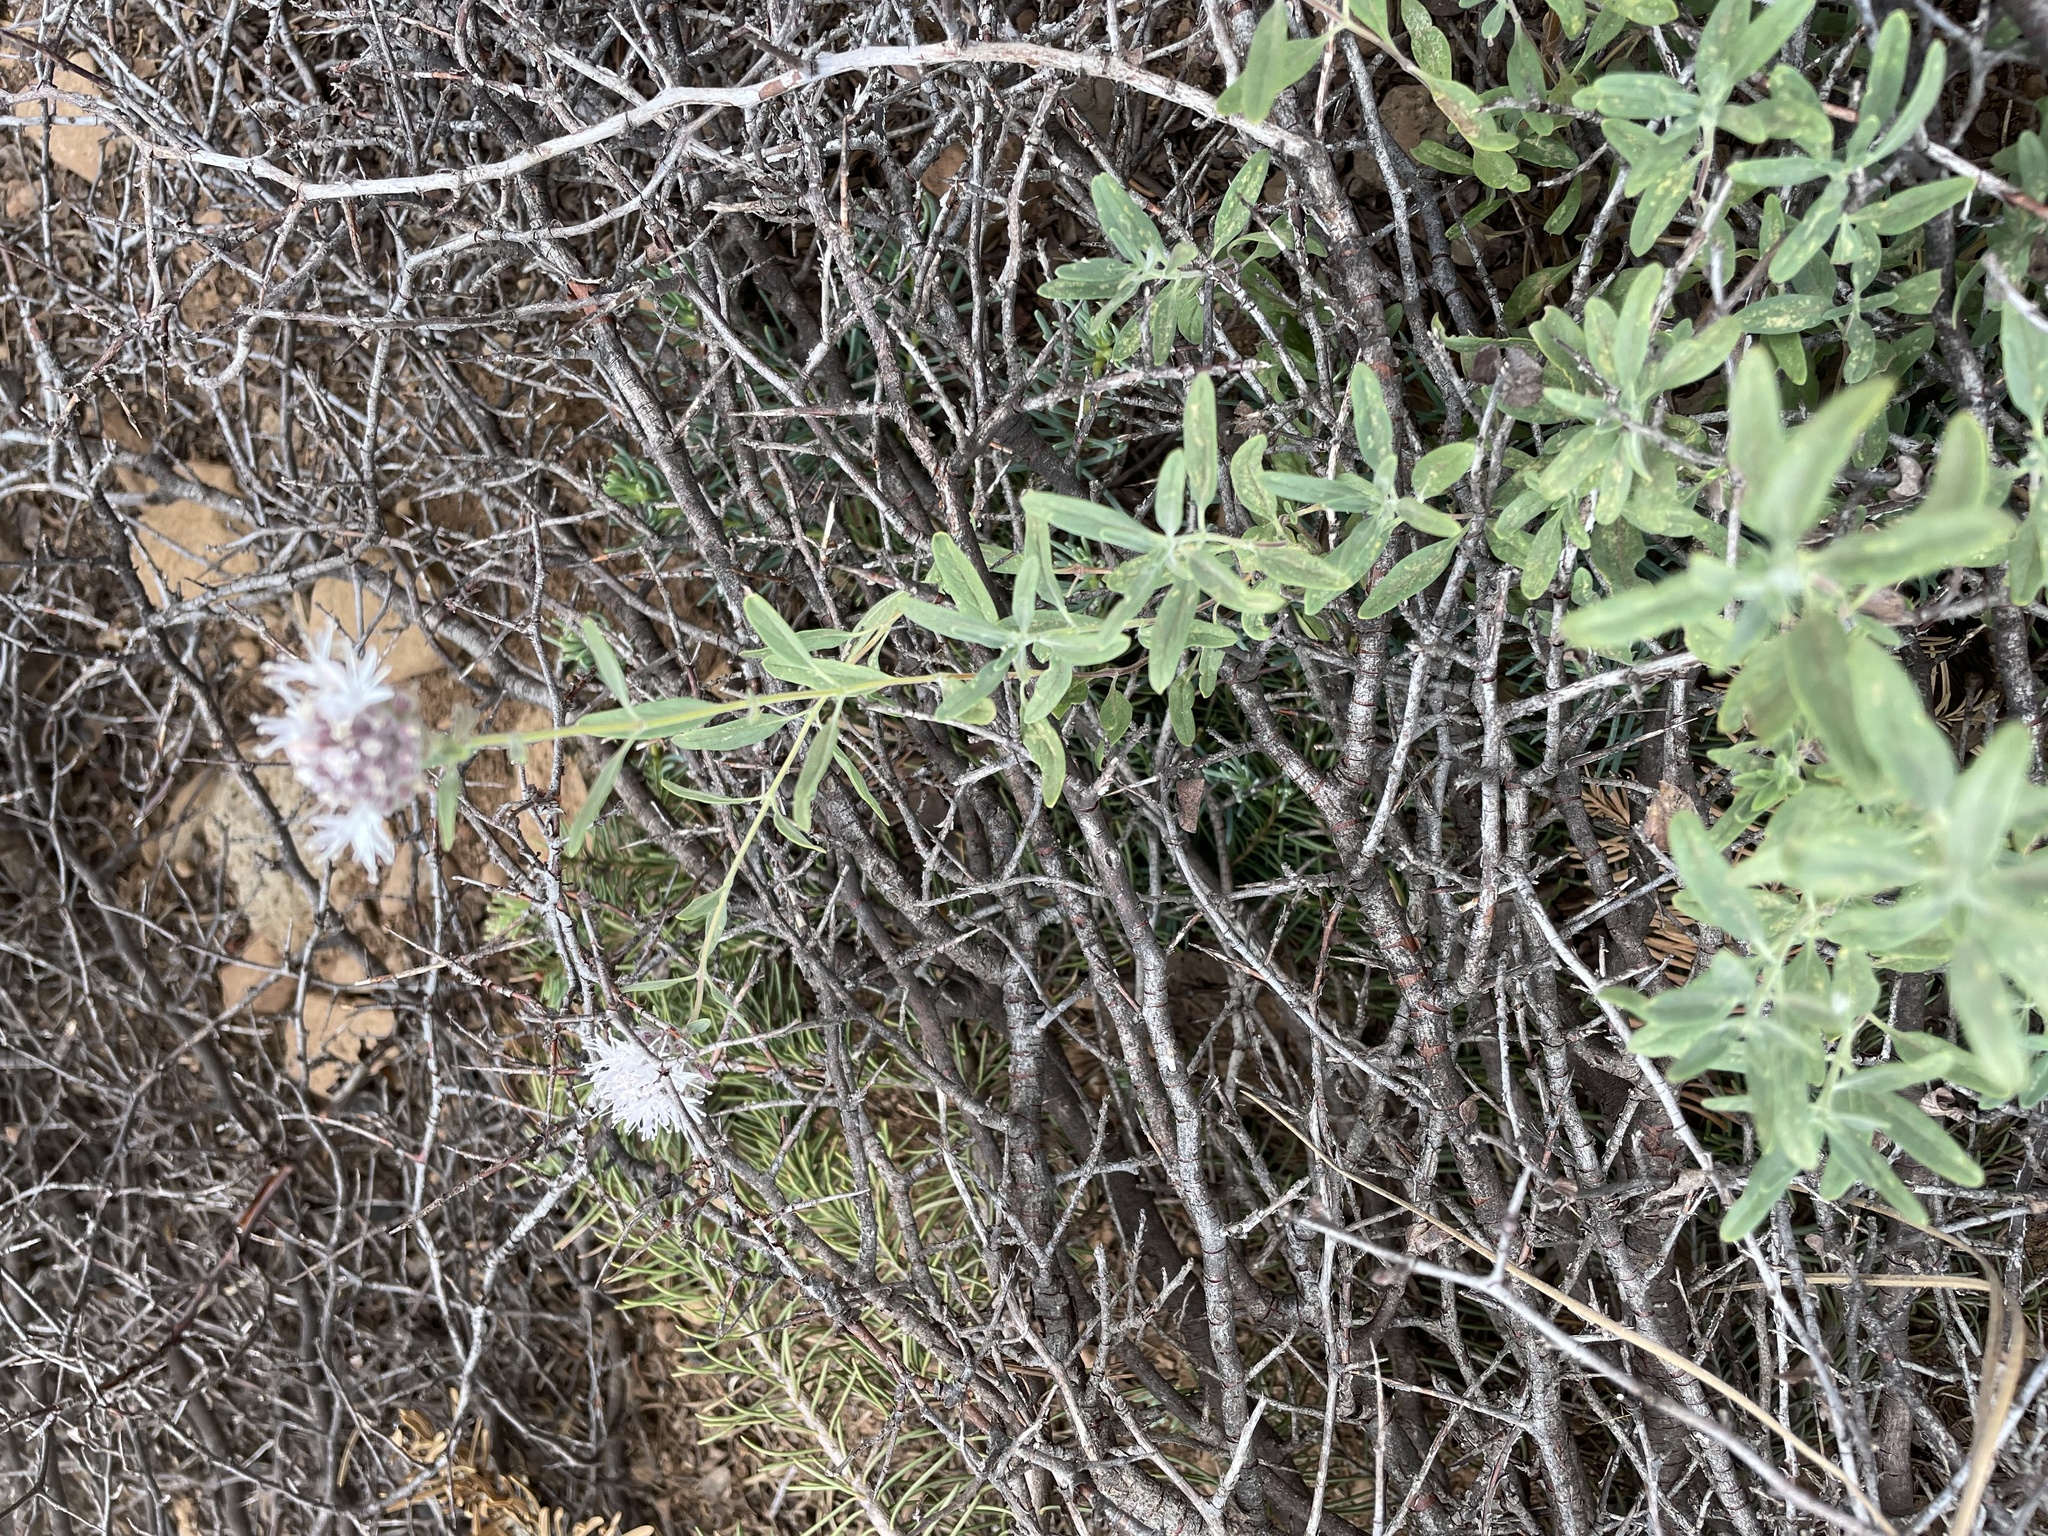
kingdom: Plantae
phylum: Tracheophyta
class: Magnoliopsida
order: Lamiales
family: Lamiaceae
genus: Monardella
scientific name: Monardella odoratissima
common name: Pacific monardella
